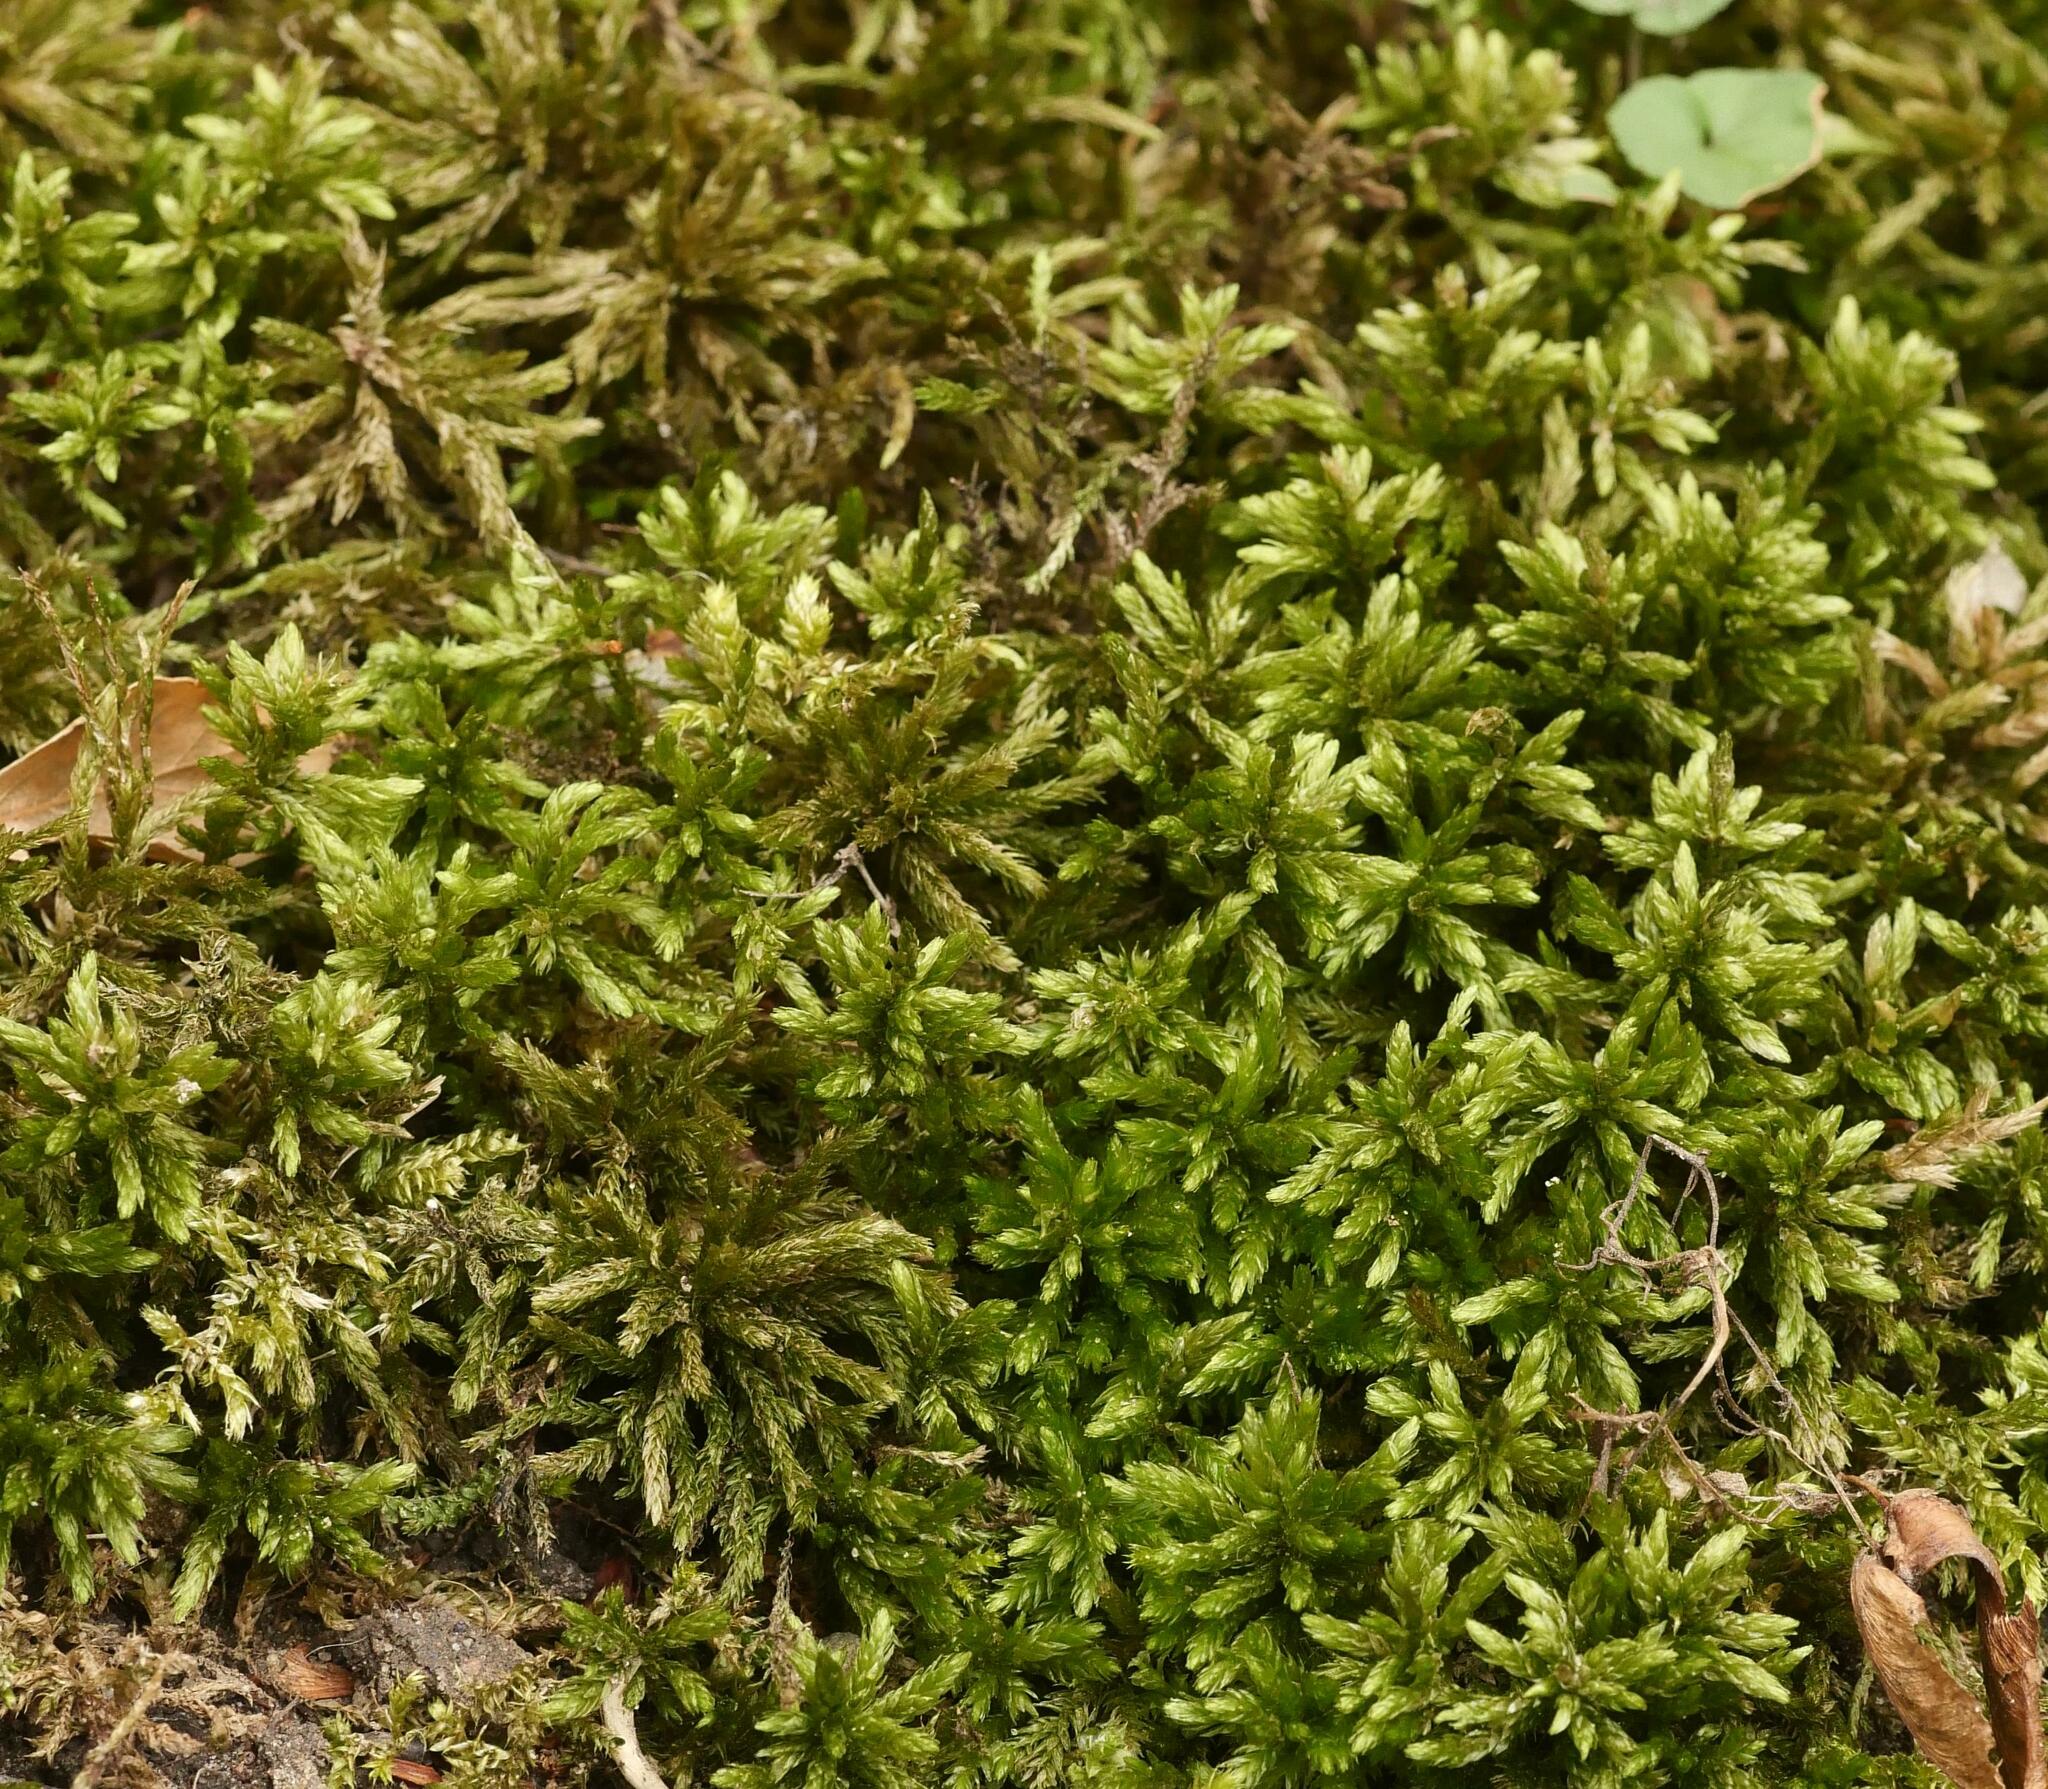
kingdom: Plantae
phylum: Bryophyta
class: Bryopsida
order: Hypnales
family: Climaciaceae
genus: Climacium
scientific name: Climacium dendroides
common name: Northern tree moss
